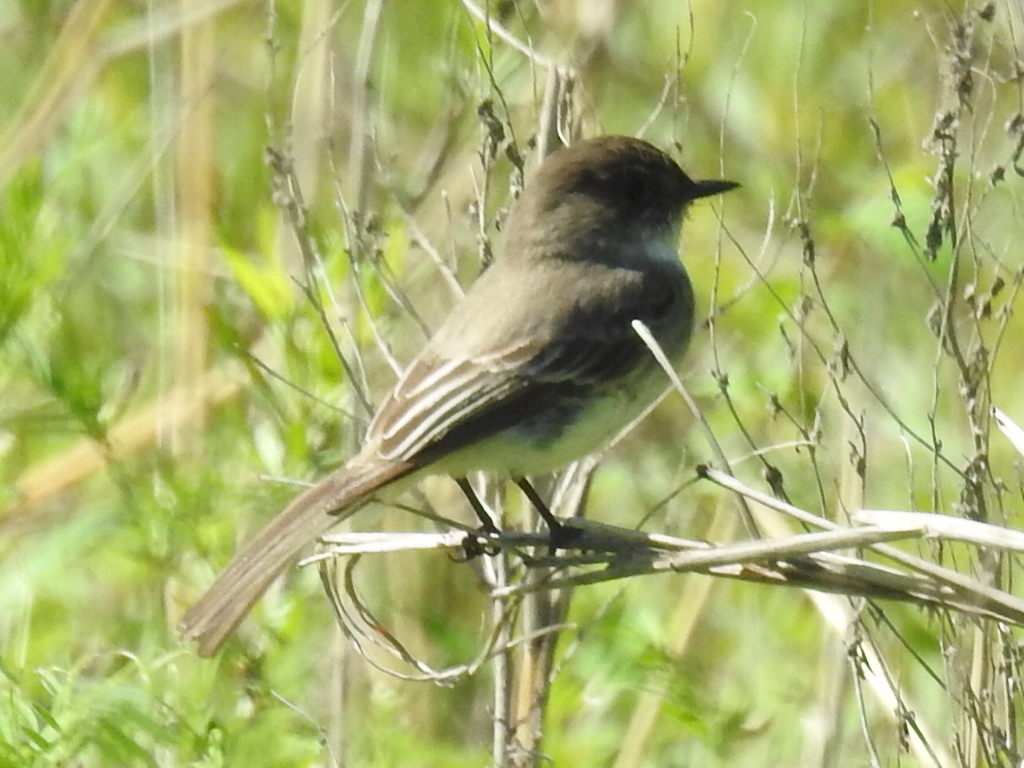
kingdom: Animalia
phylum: Chordata
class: Aves
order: Passeriformes
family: Tyrannidae
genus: Sayornis
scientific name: Sayornis phoebe
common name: Eastern phoebe
